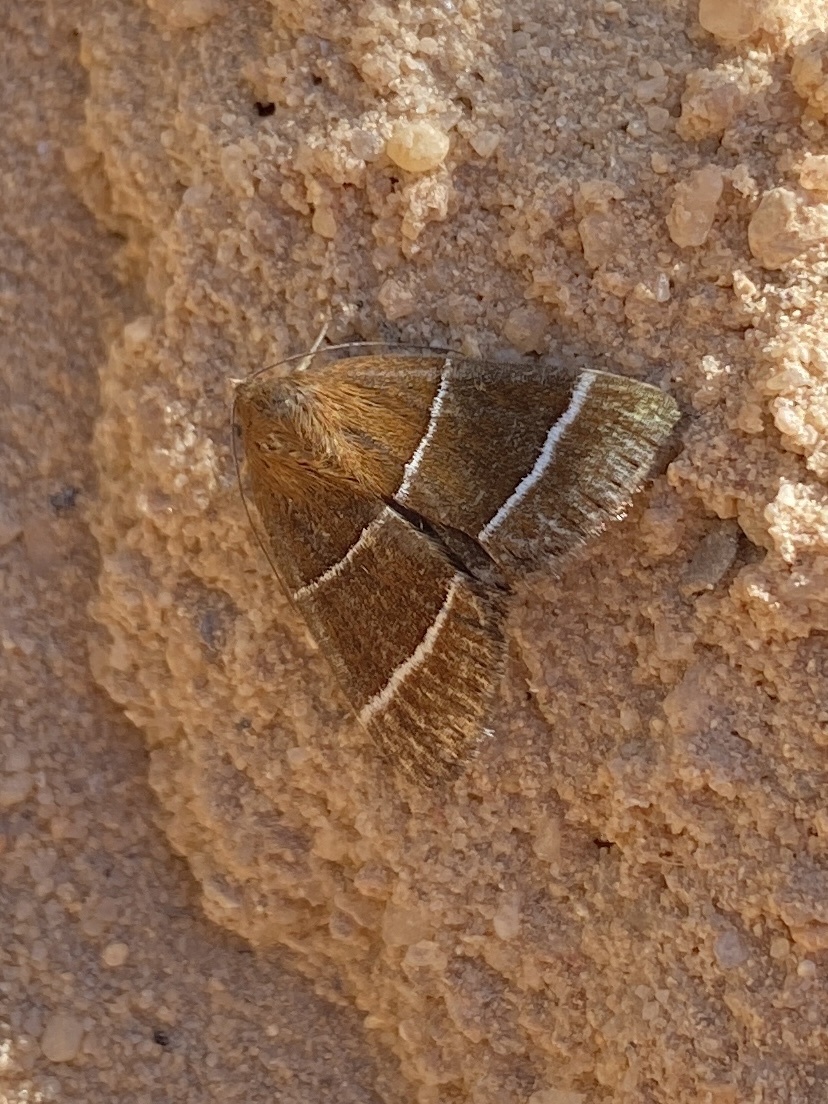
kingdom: Animalia
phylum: Arthropoda
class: Insecta
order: Lepidoptera
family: Erebidae
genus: Argyrostrotis
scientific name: Argyrostrotis quadrifilaris
